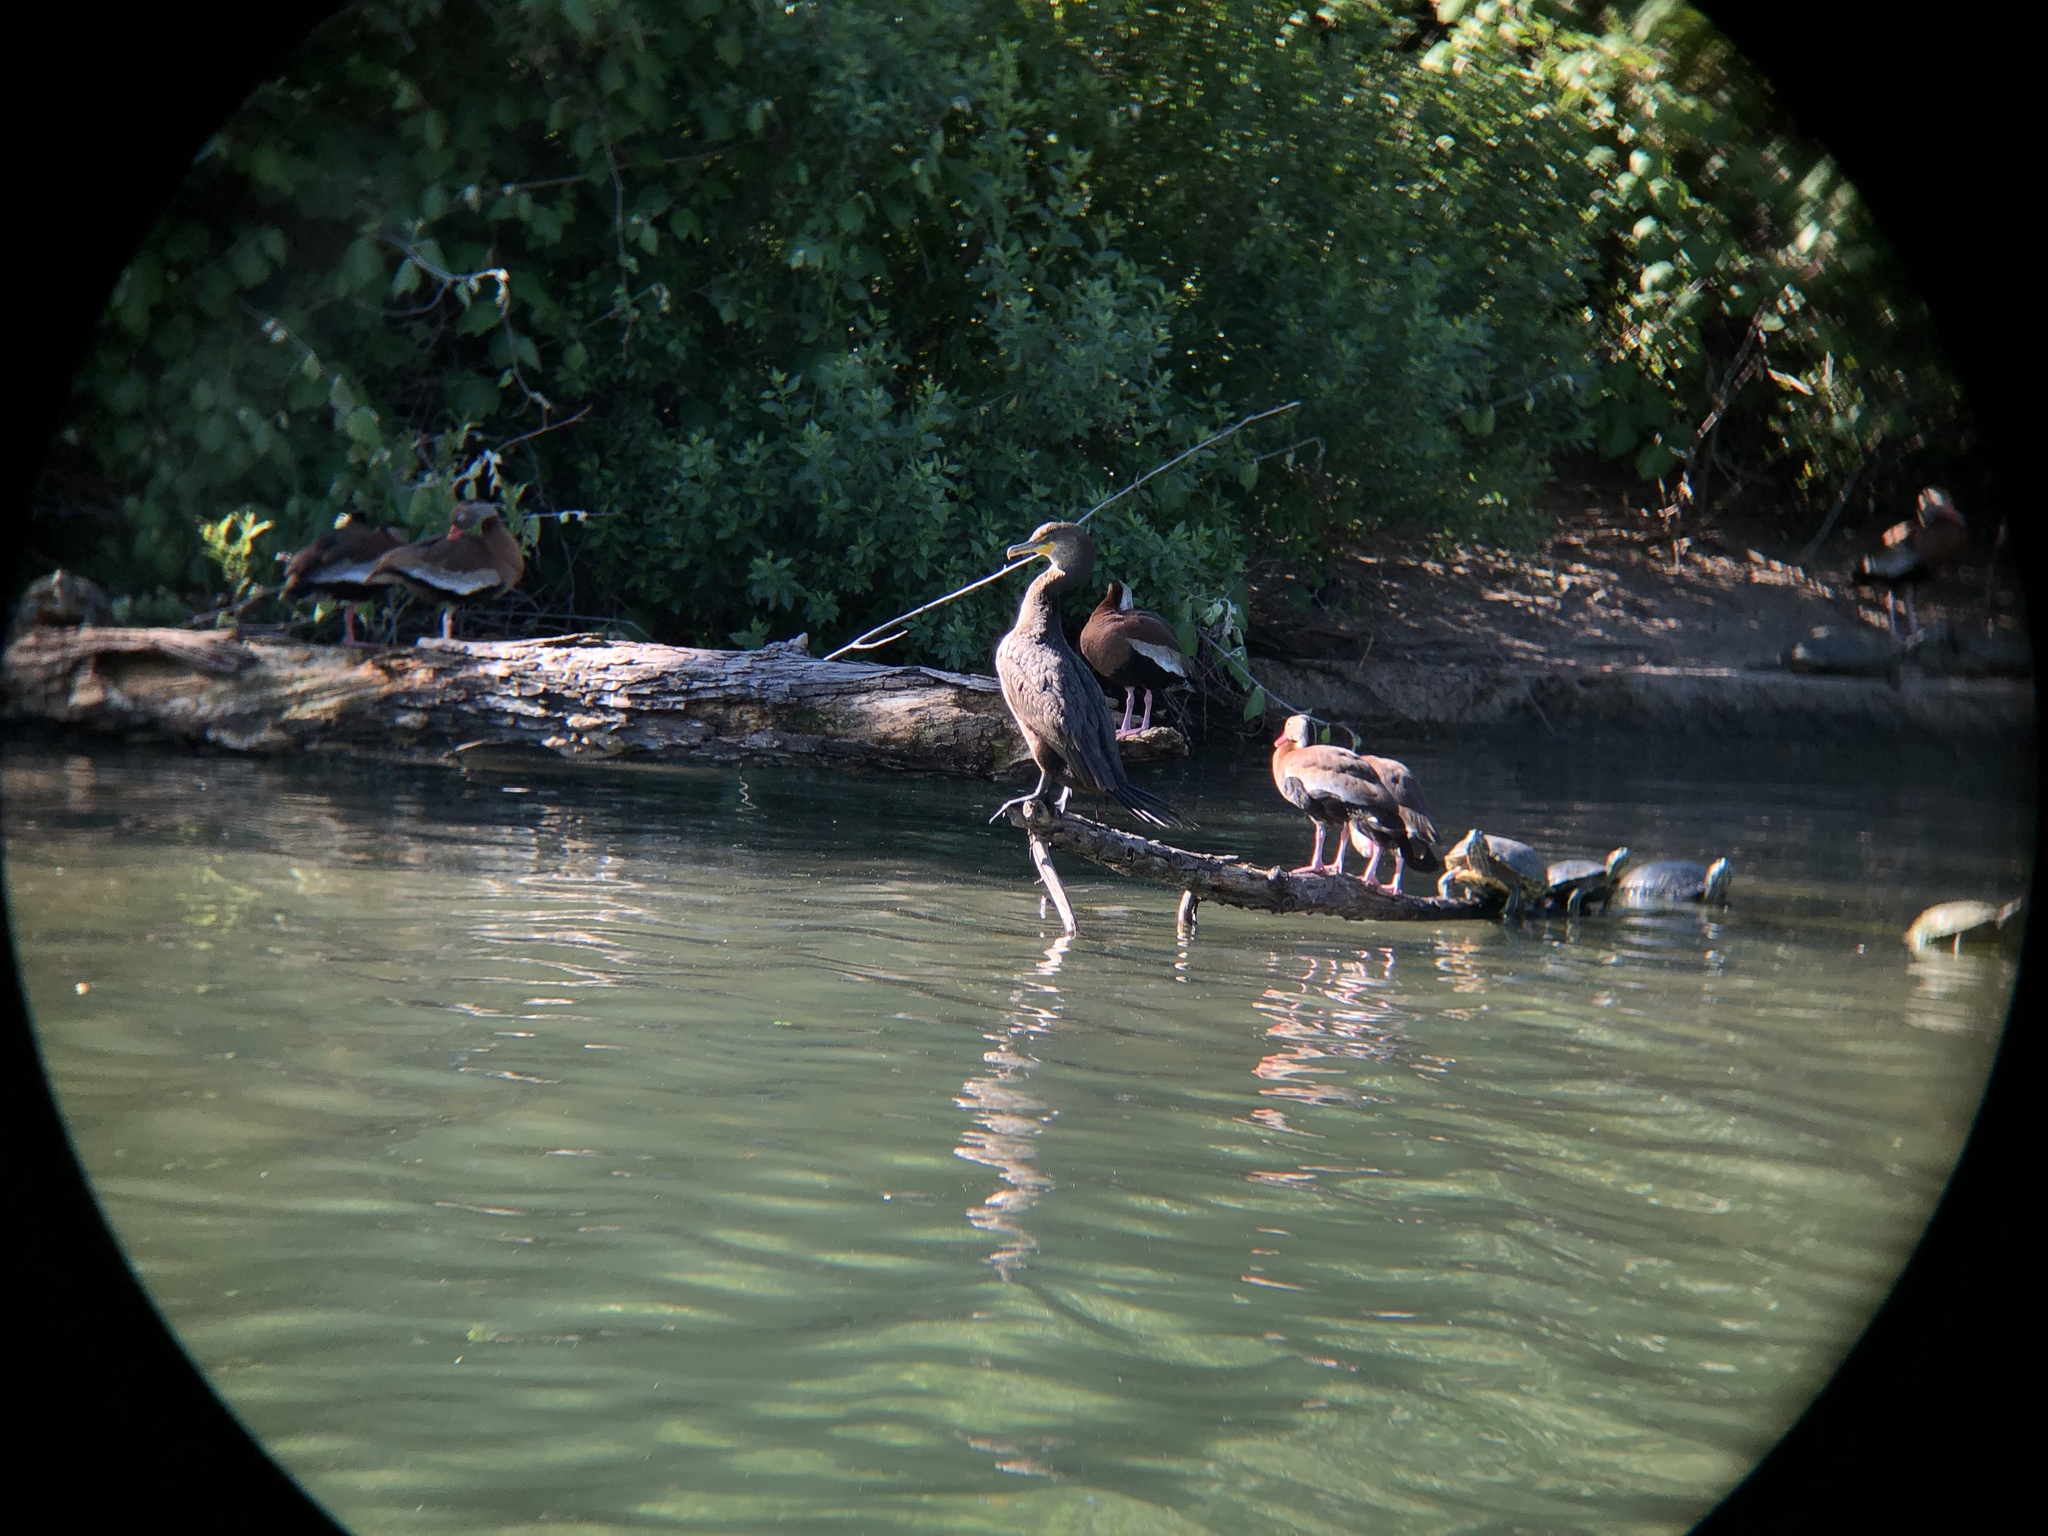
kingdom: Animalia
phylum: Chordata
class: Aves
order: Suliformes
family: Phalacrocoracidae
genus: Phalacrocorax
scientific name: Phalacrocorax auritus
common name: Double-crested cormorant
